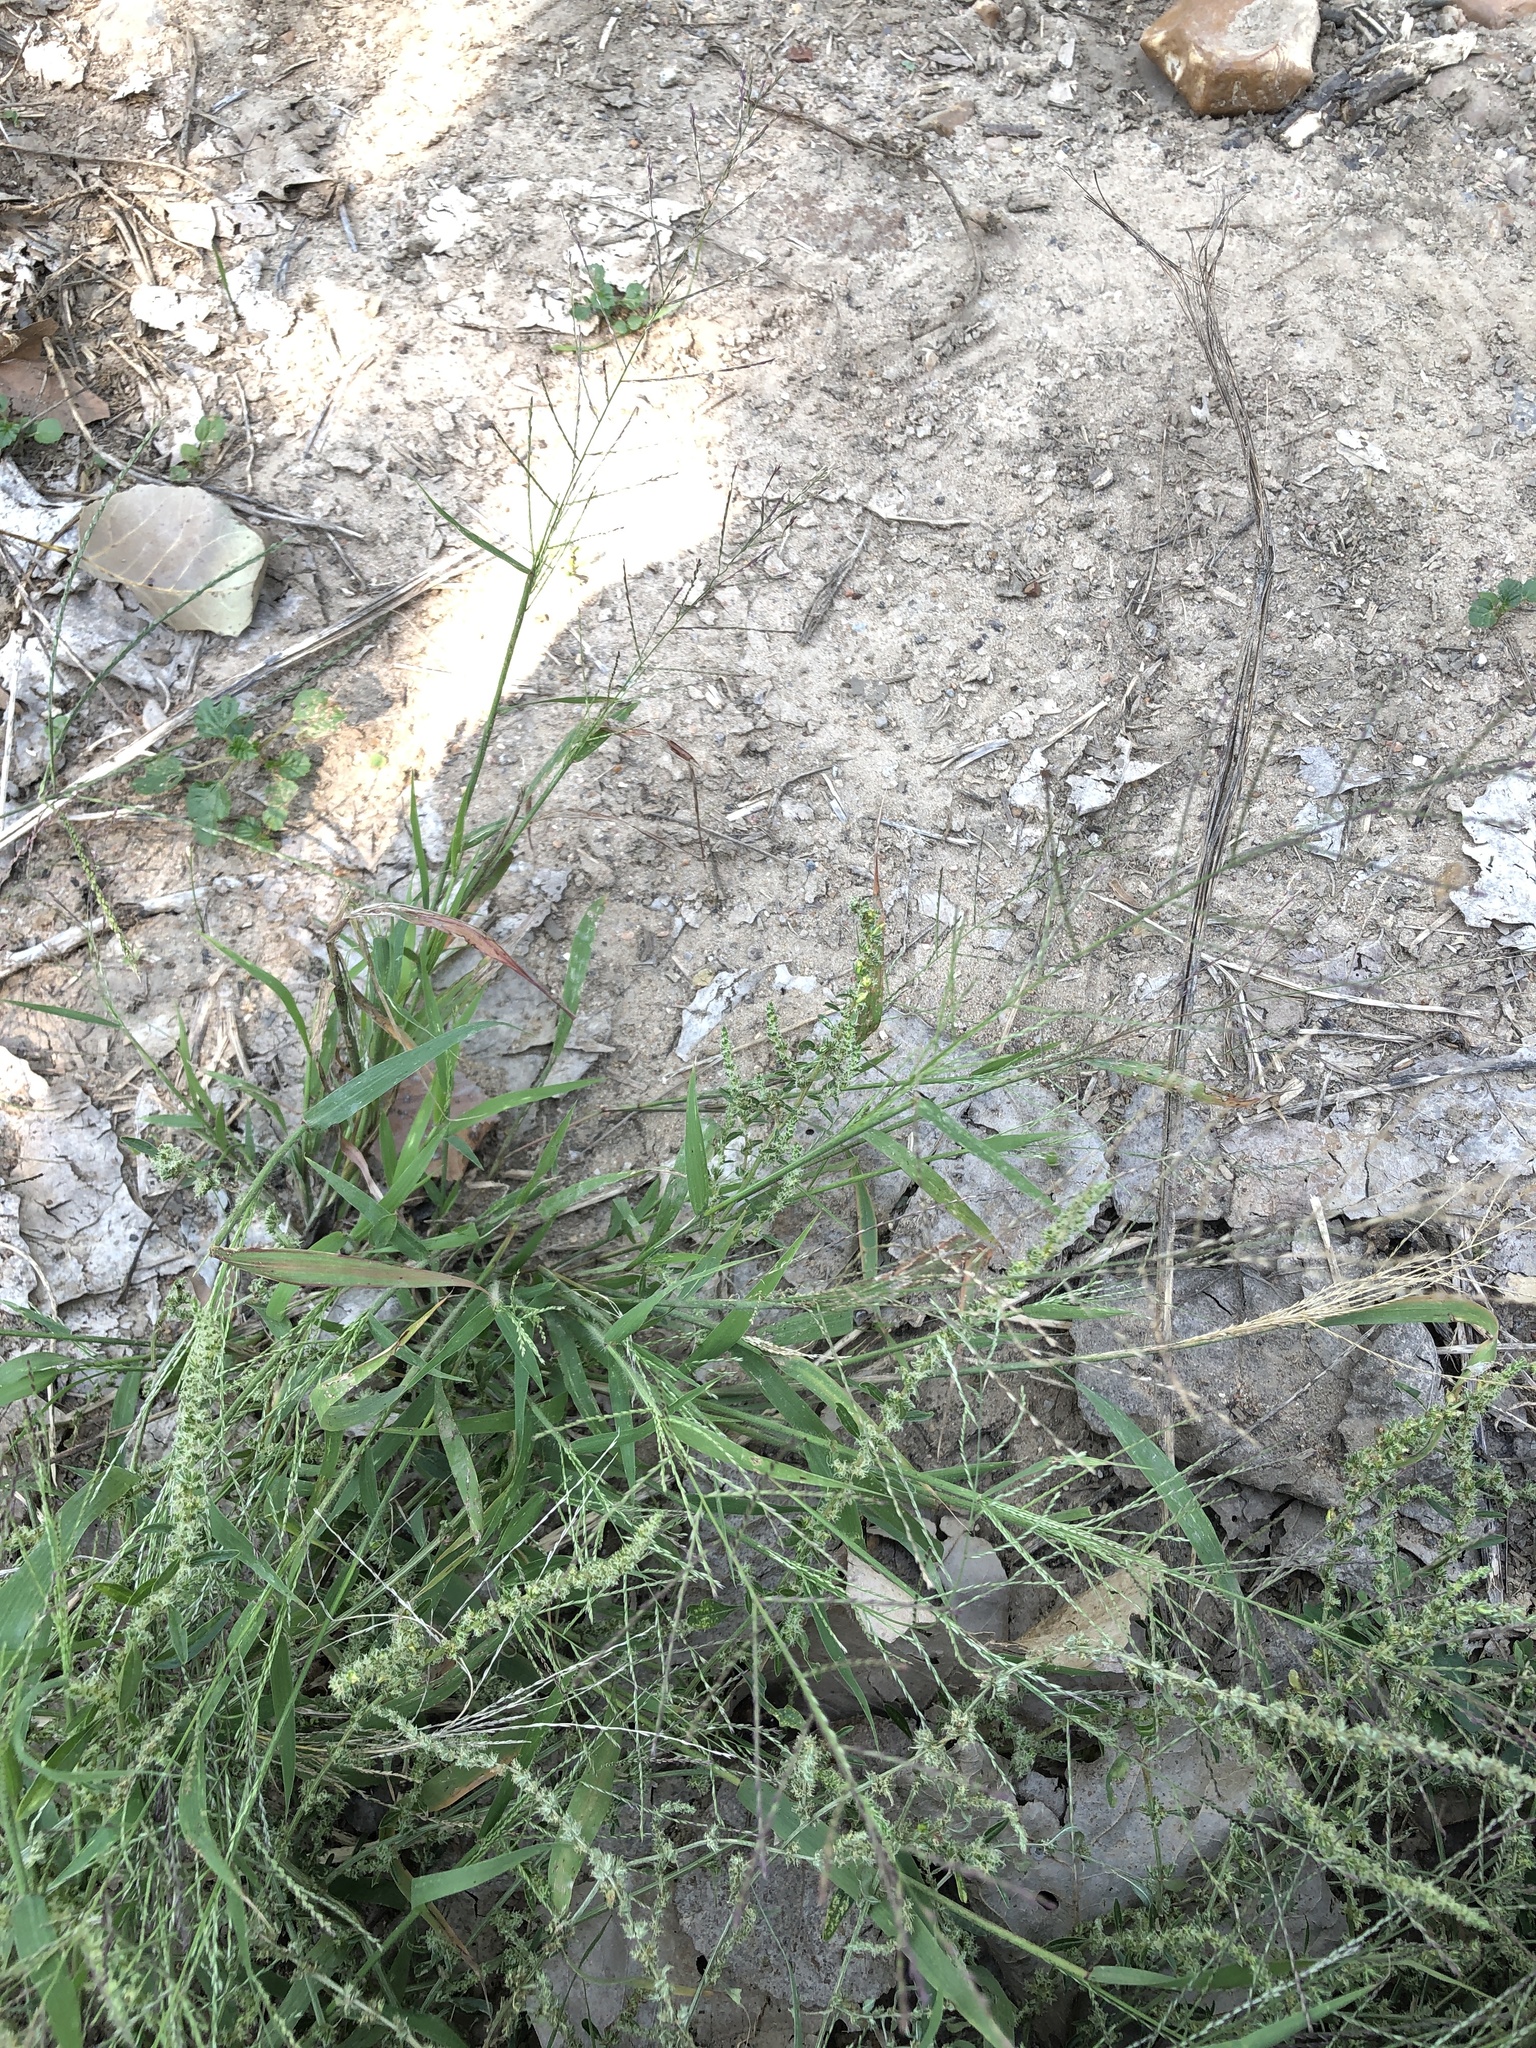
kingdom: Plantae
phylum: Tracheophyta
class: Liliopsida
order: Poales
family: Poaceae
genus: Diplachne
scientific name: Diplachne fusca
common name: Brown beetle grass
